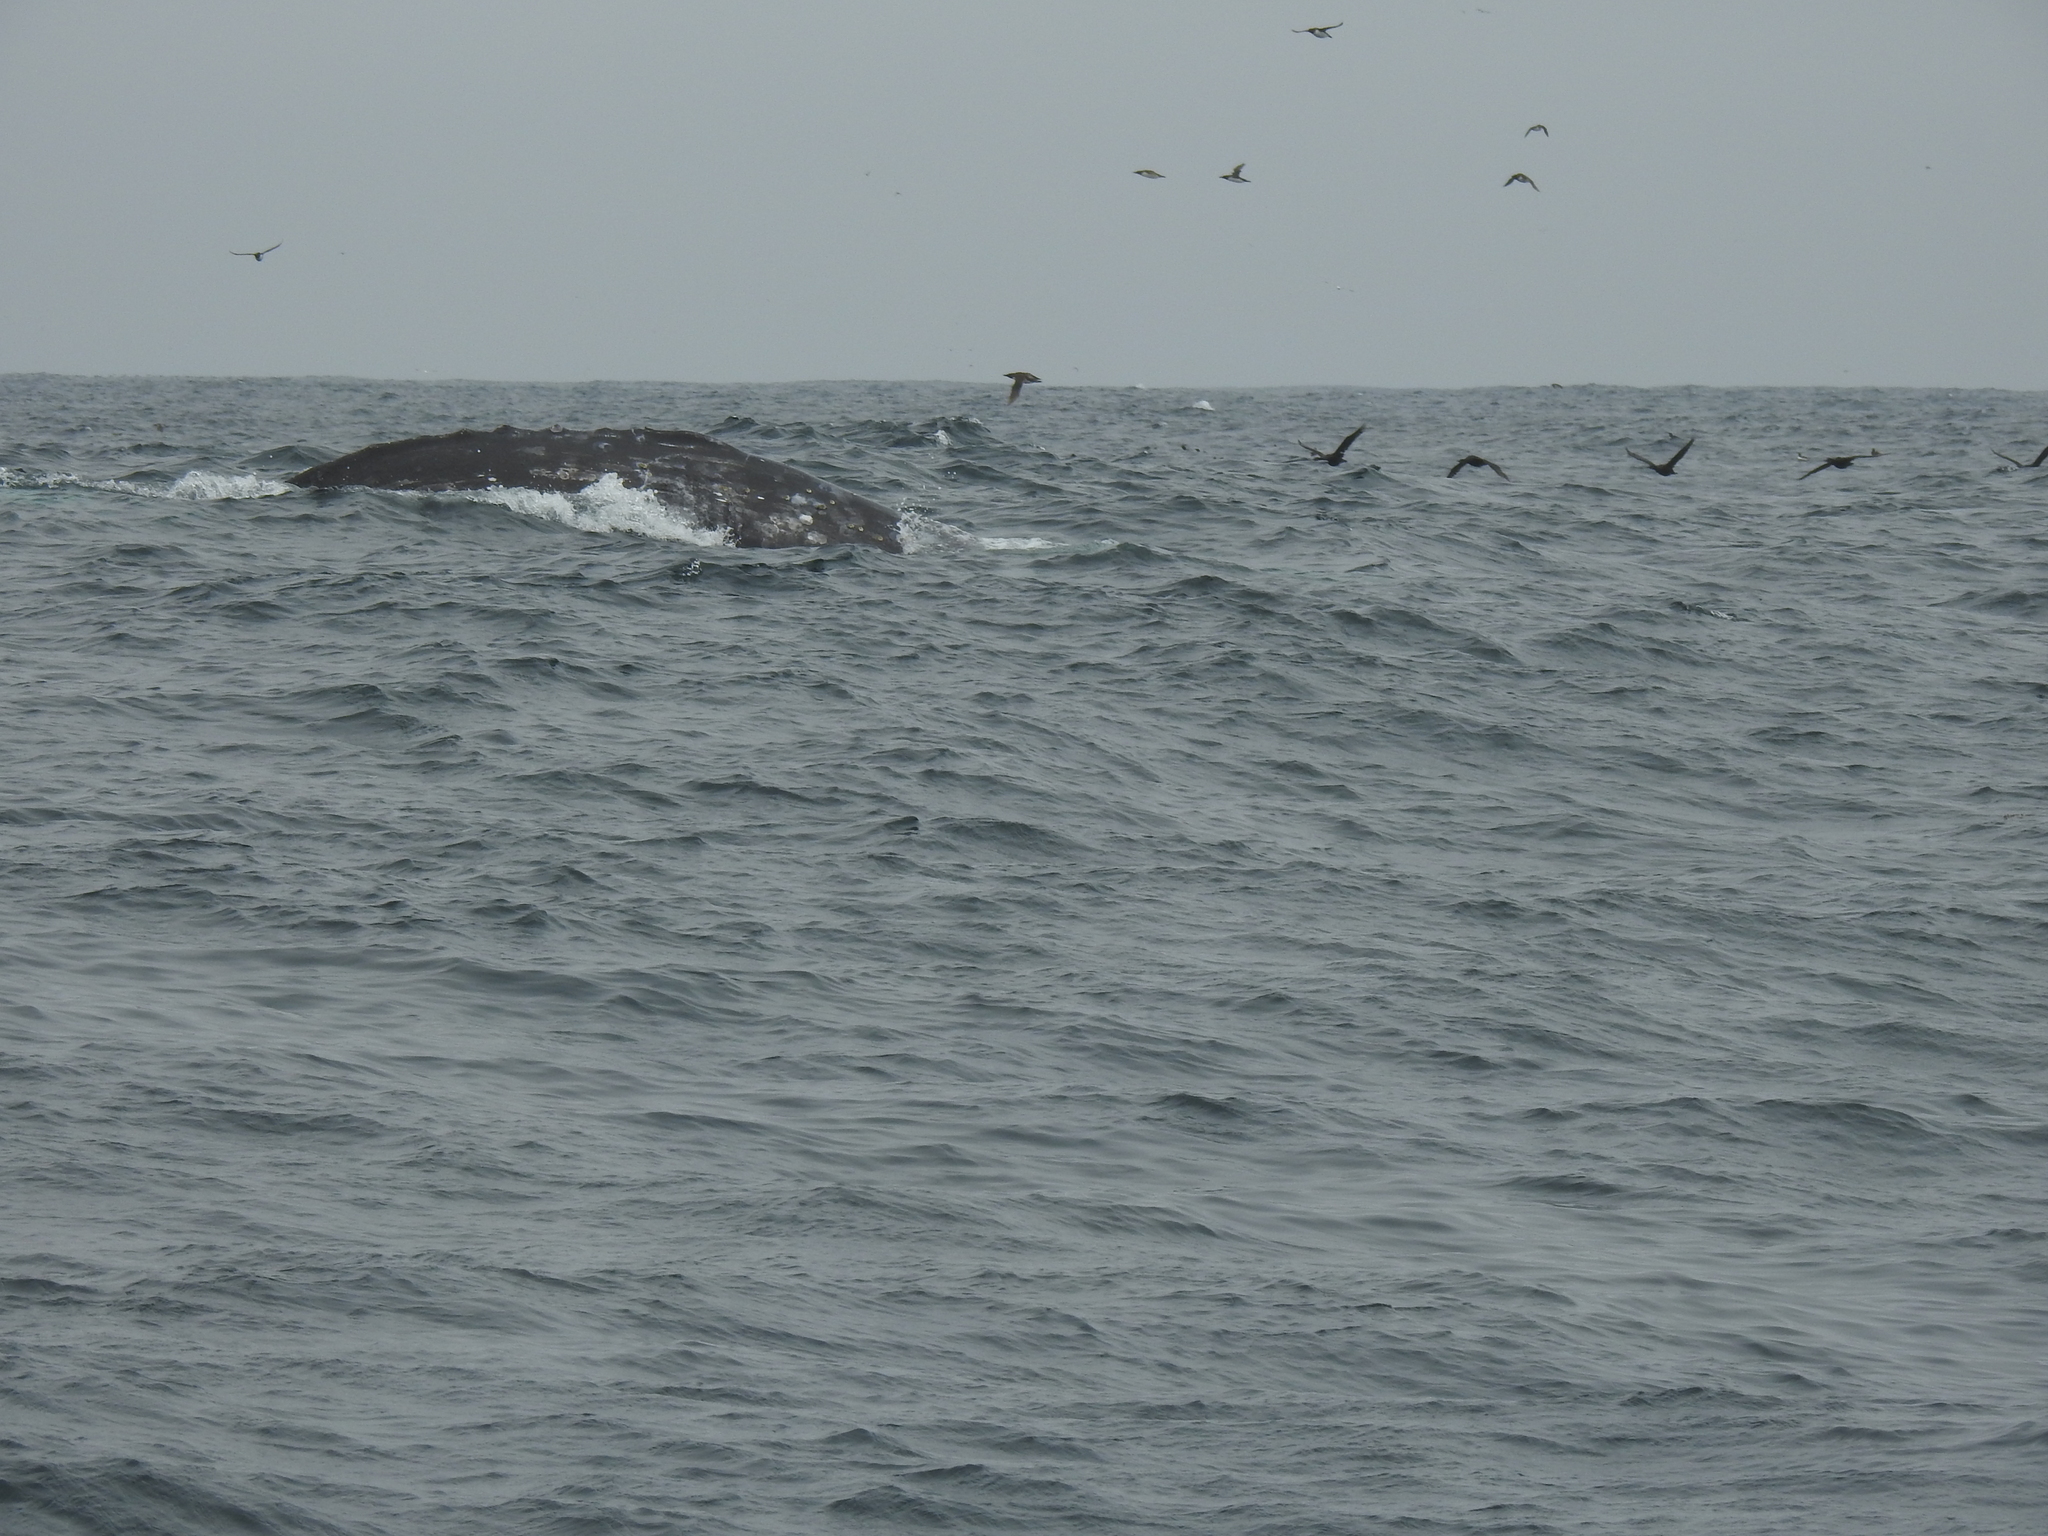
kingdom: Animalia
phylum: Chordata
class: Mammalia
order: Cetacea
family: Eschrichtiidae
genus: Eschrichtius
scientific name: Eschrichtius robustus
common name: Gray whale
